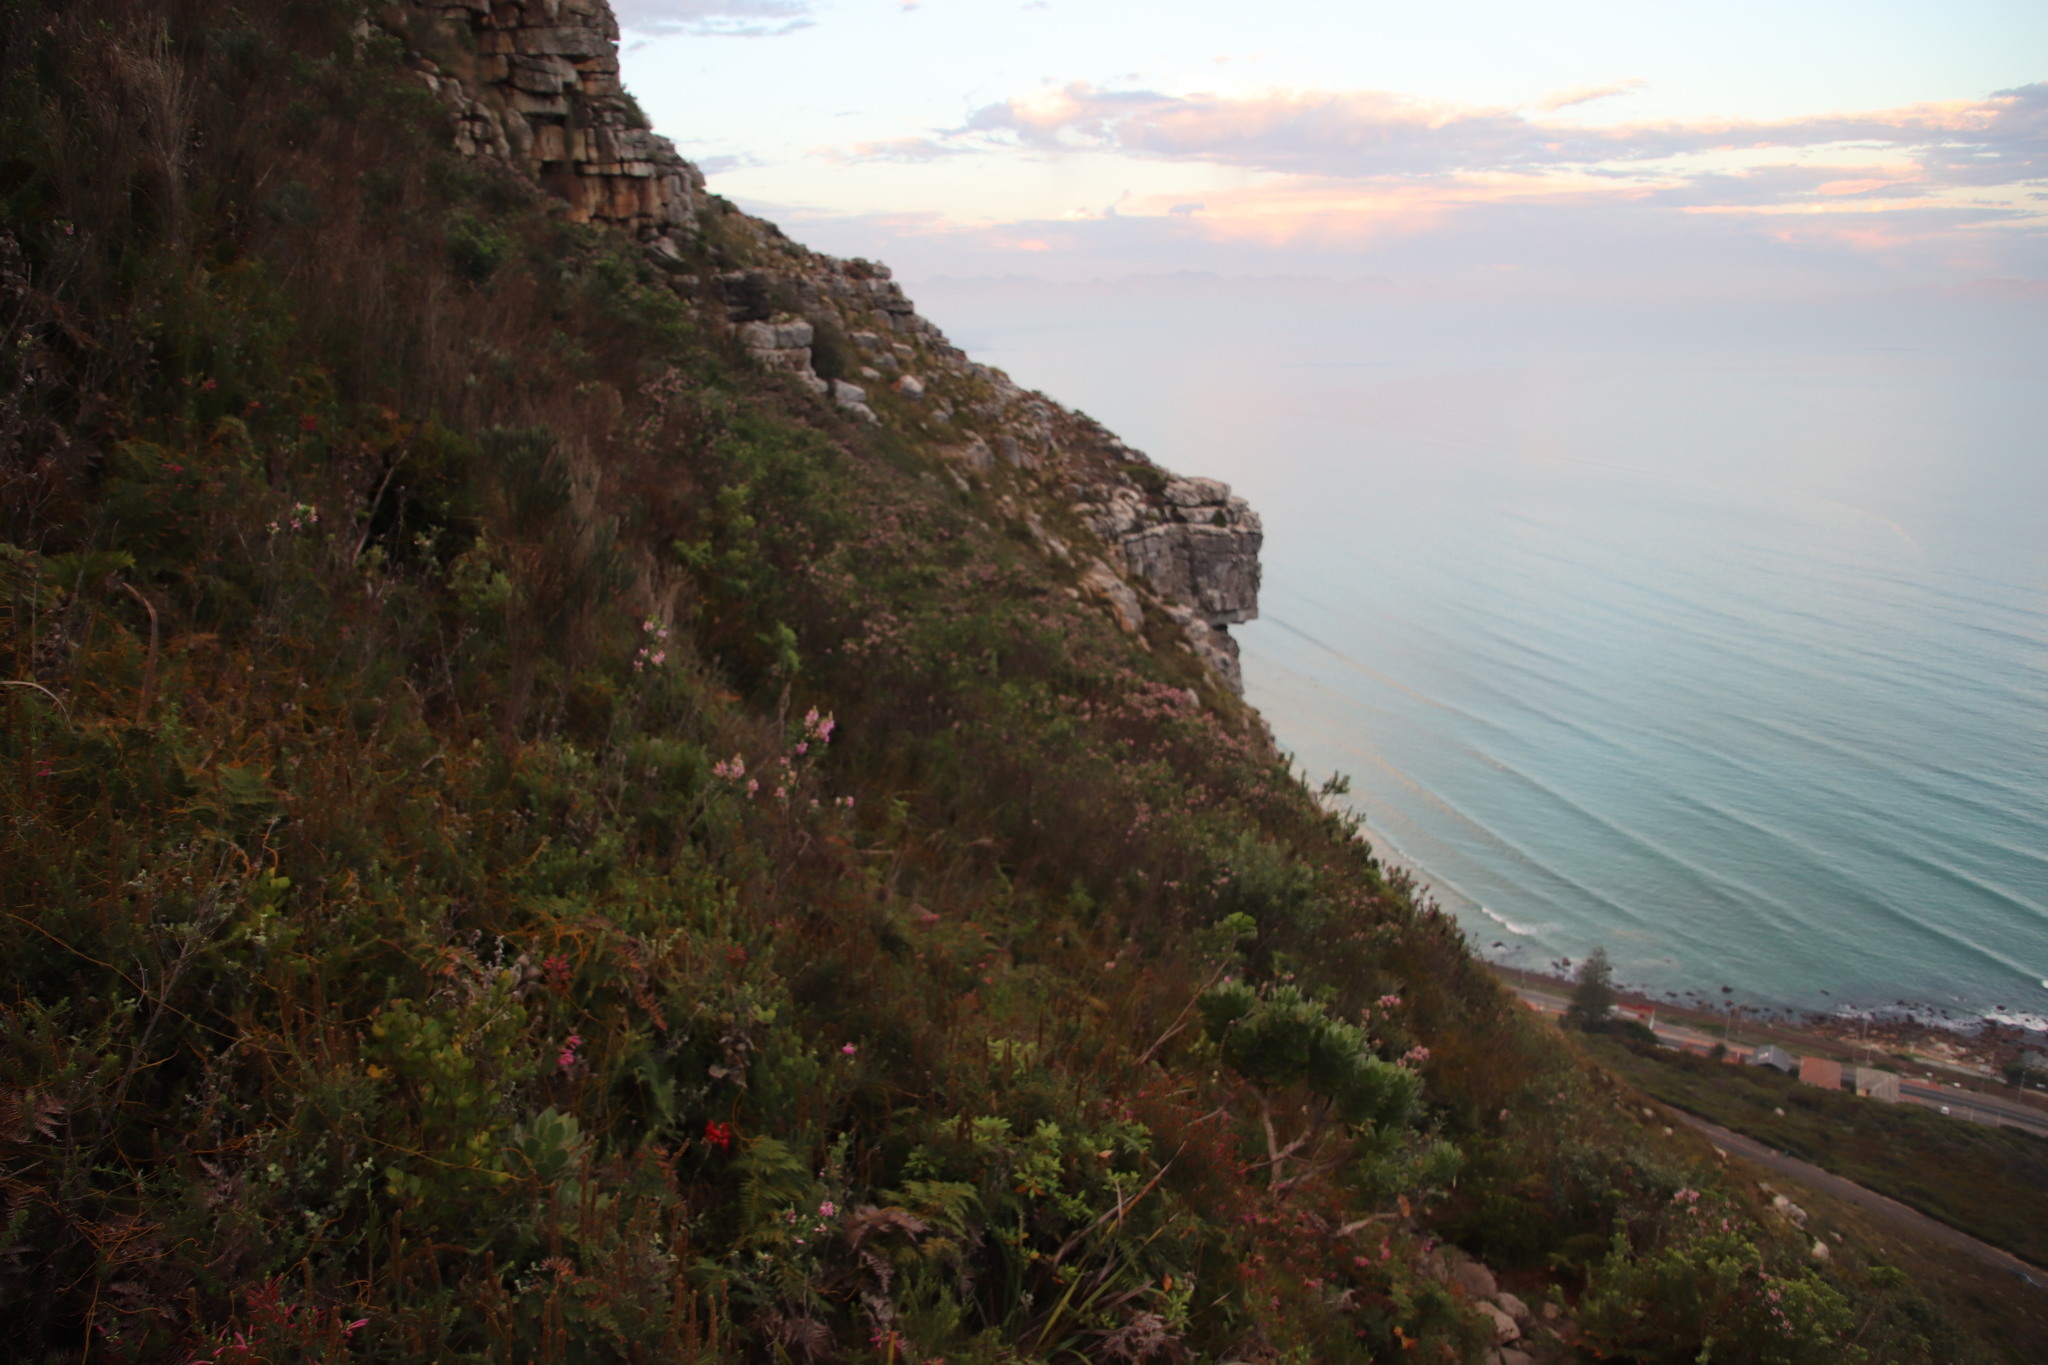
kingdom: Plantae
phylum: Tracheophyta
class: Magnoliopsida
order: Fabales
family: Fabaceae
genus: Indigofera
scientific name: Indigofera cytisoides
